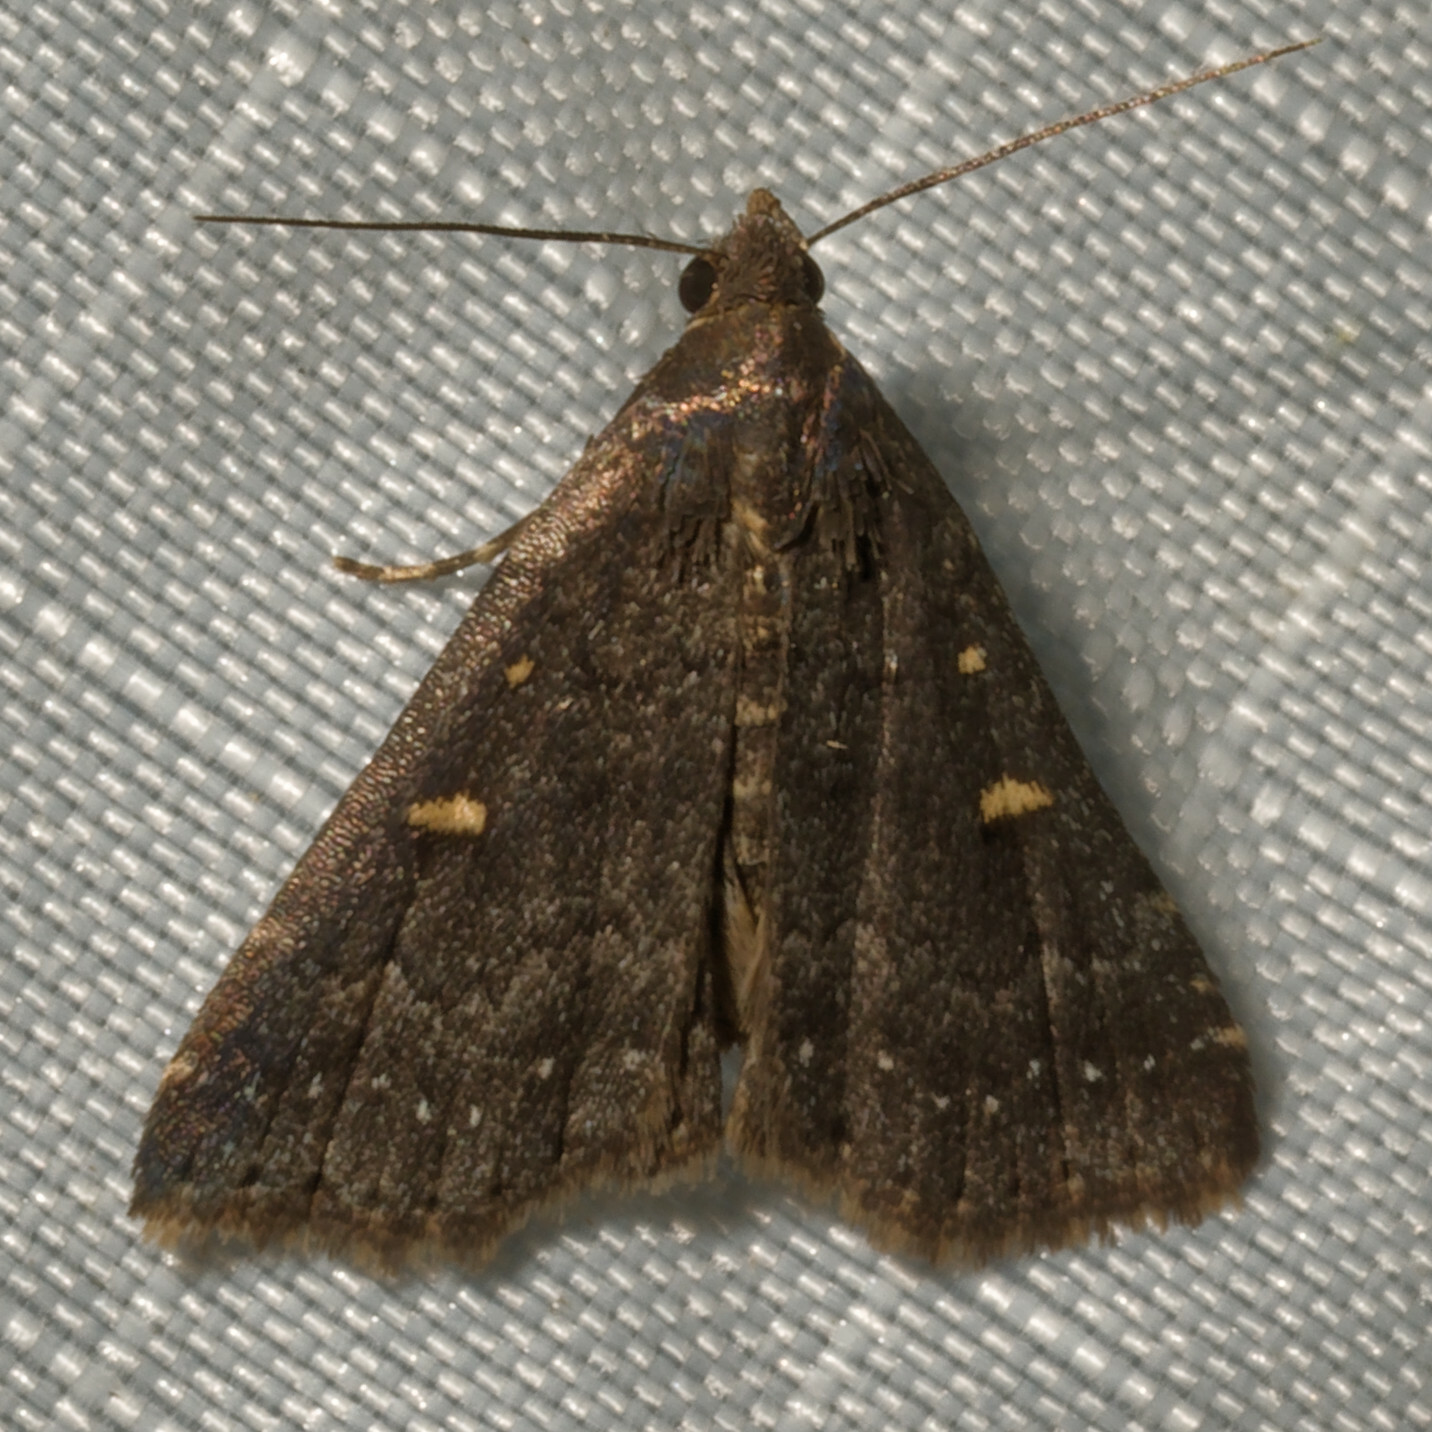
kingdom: Animalia
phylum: Arthropoda
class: Insecta
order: Lepidoptera
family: Erebidae
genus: Tetanolita
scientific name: Tetanolita mynesalis
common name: Smoky tetanolita moth
